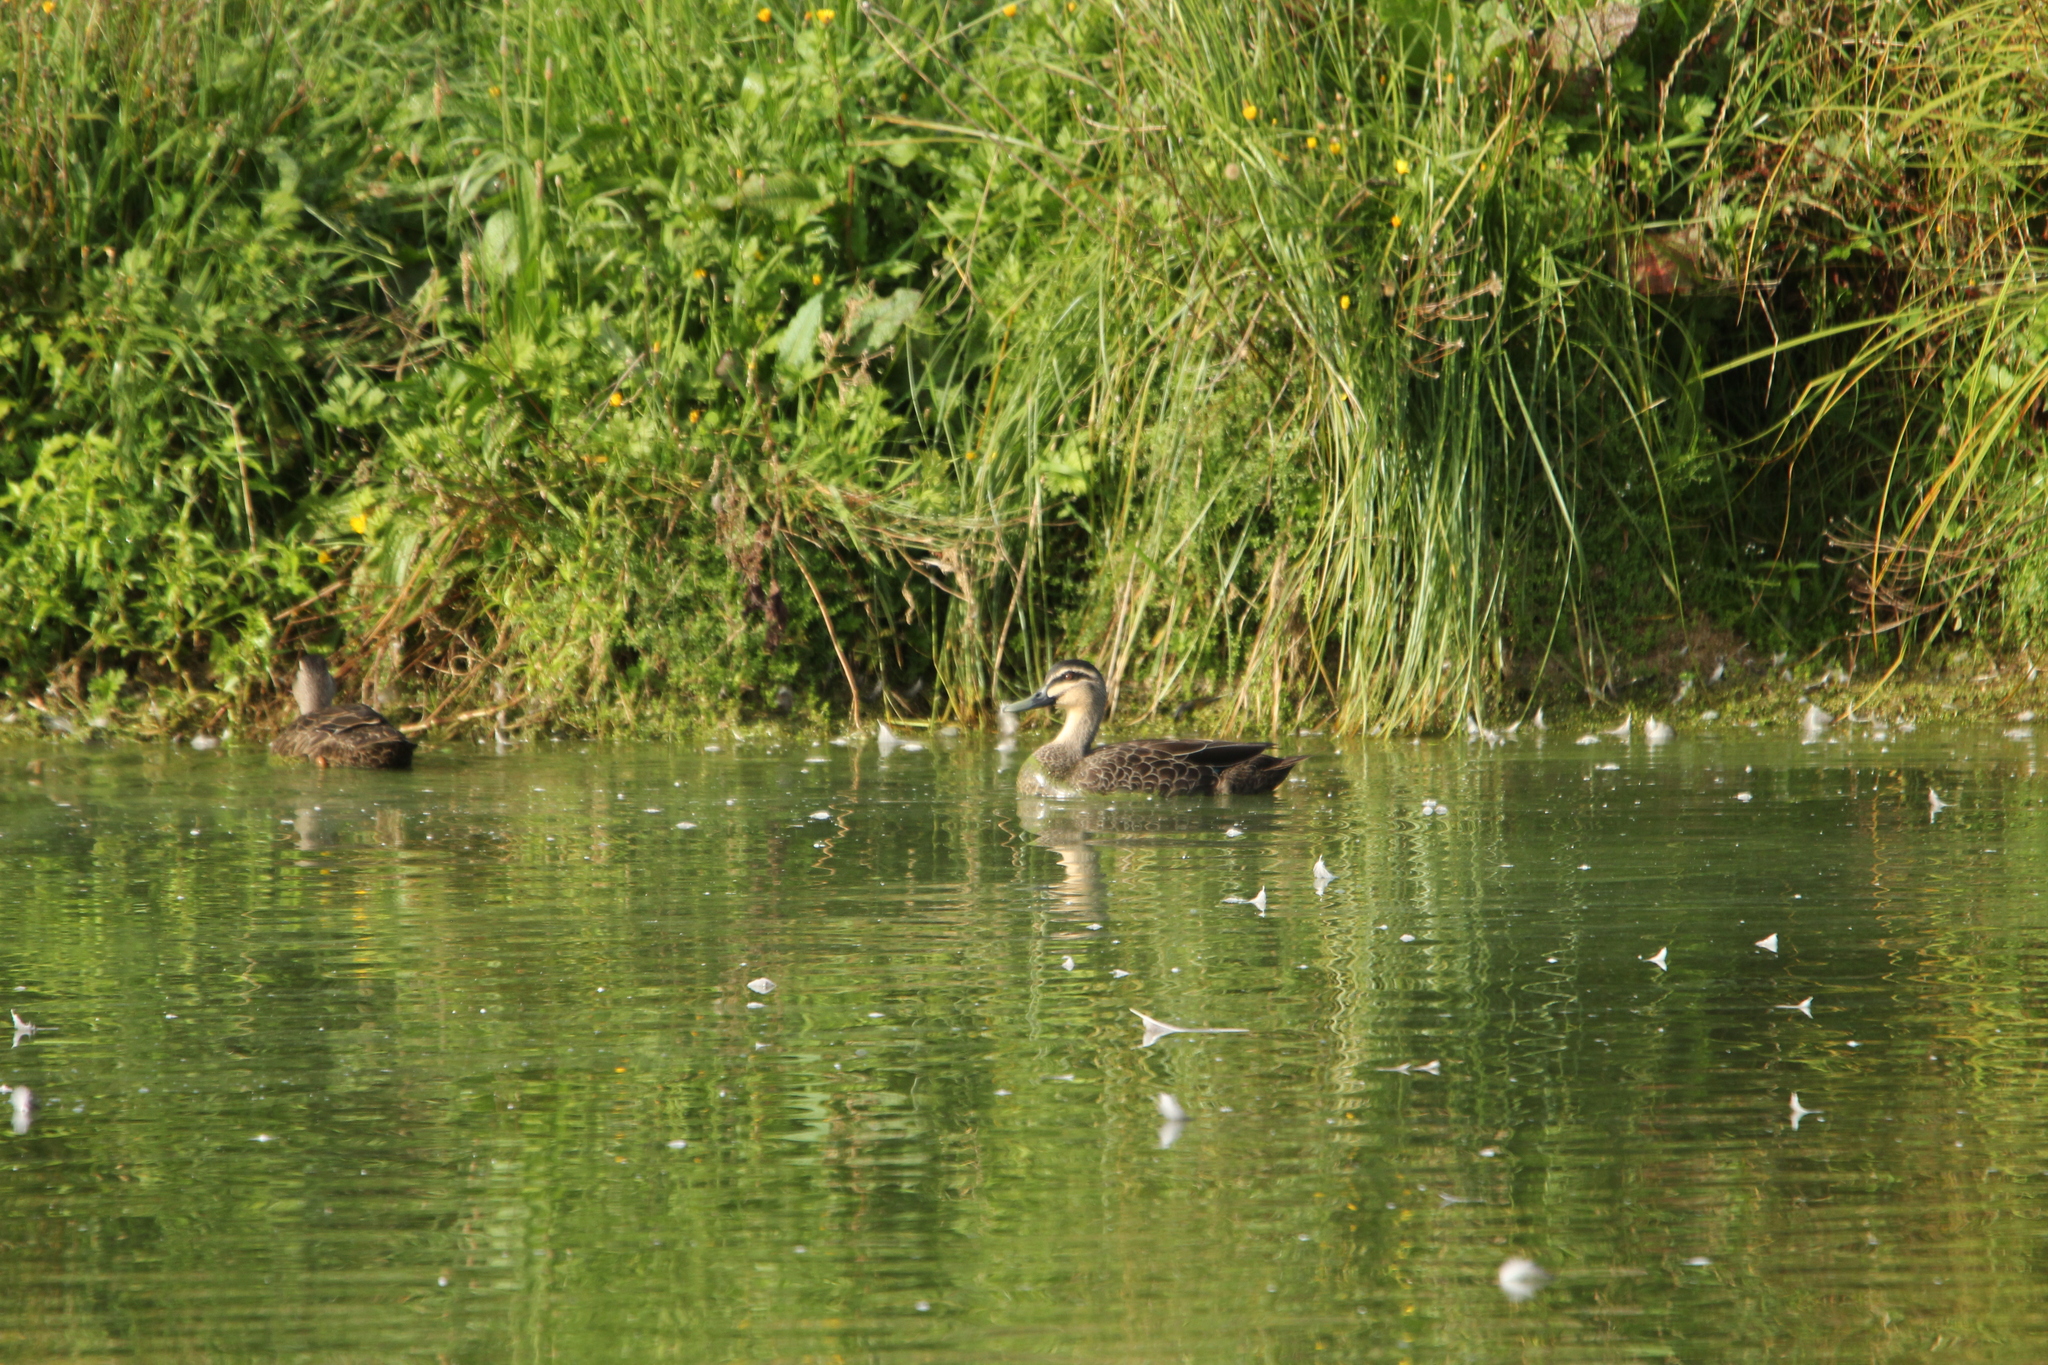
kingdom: Animalia
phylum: Chordata
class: Aves
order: Anseriformes
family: Anatidae
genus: Anas
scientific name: Anas
